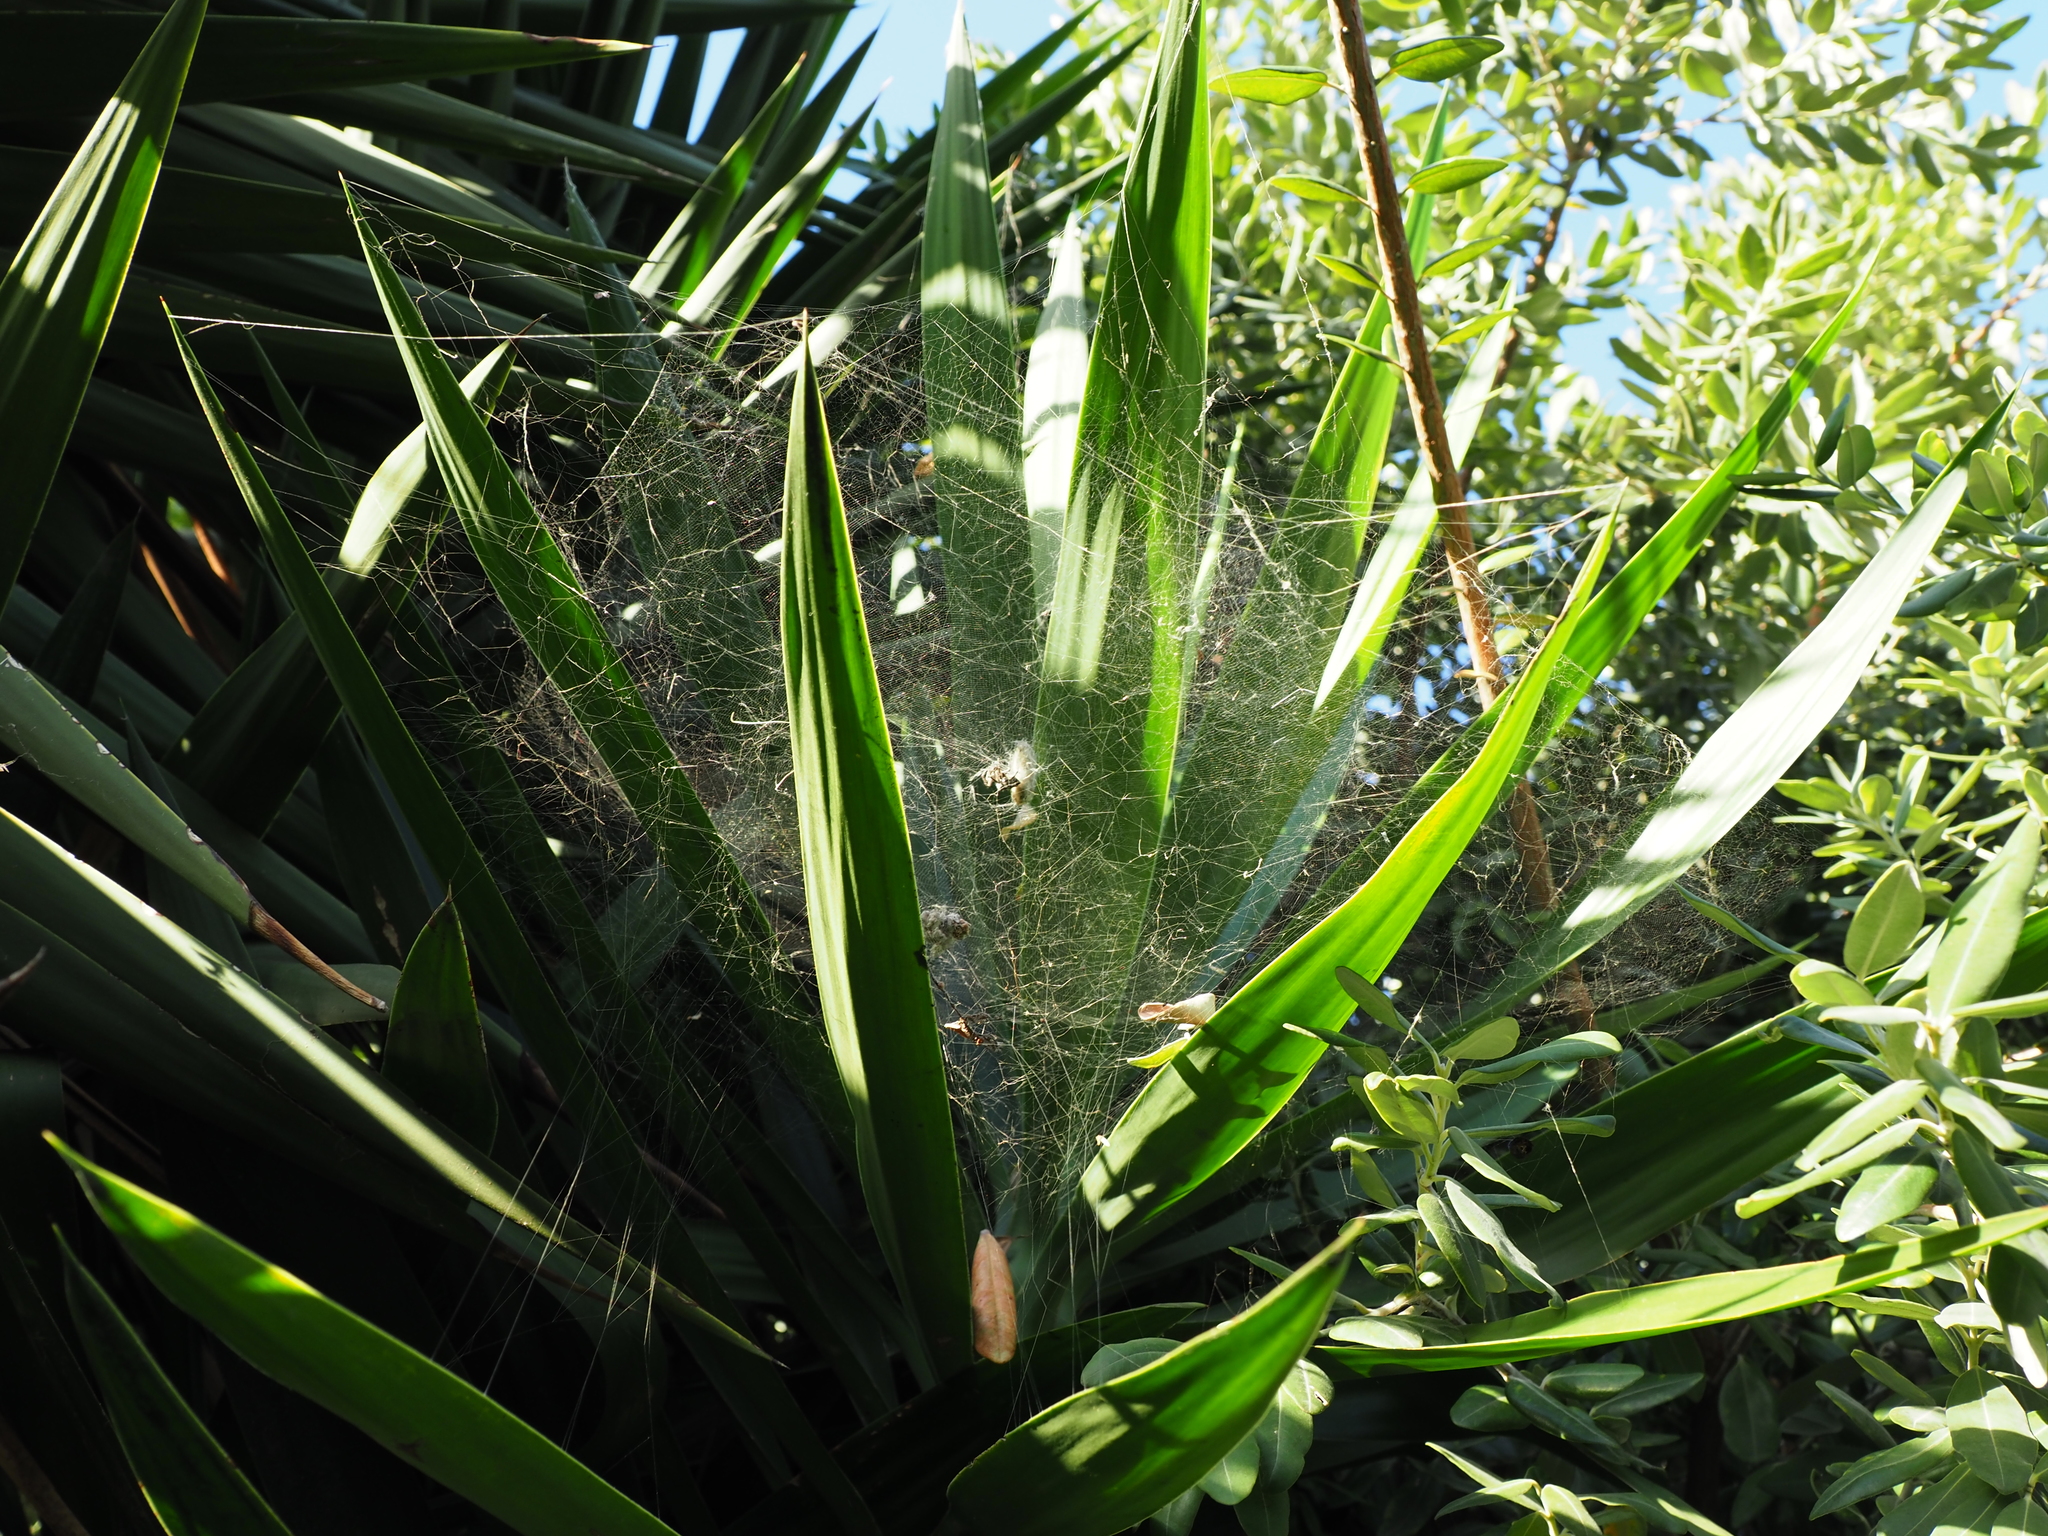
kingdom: Animalia
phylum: Arthropoda
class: Arachnida
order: Araneae
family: Araneidae
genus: Cyrtophora
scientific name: Cyrtophora citricola
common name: Orb weavers
